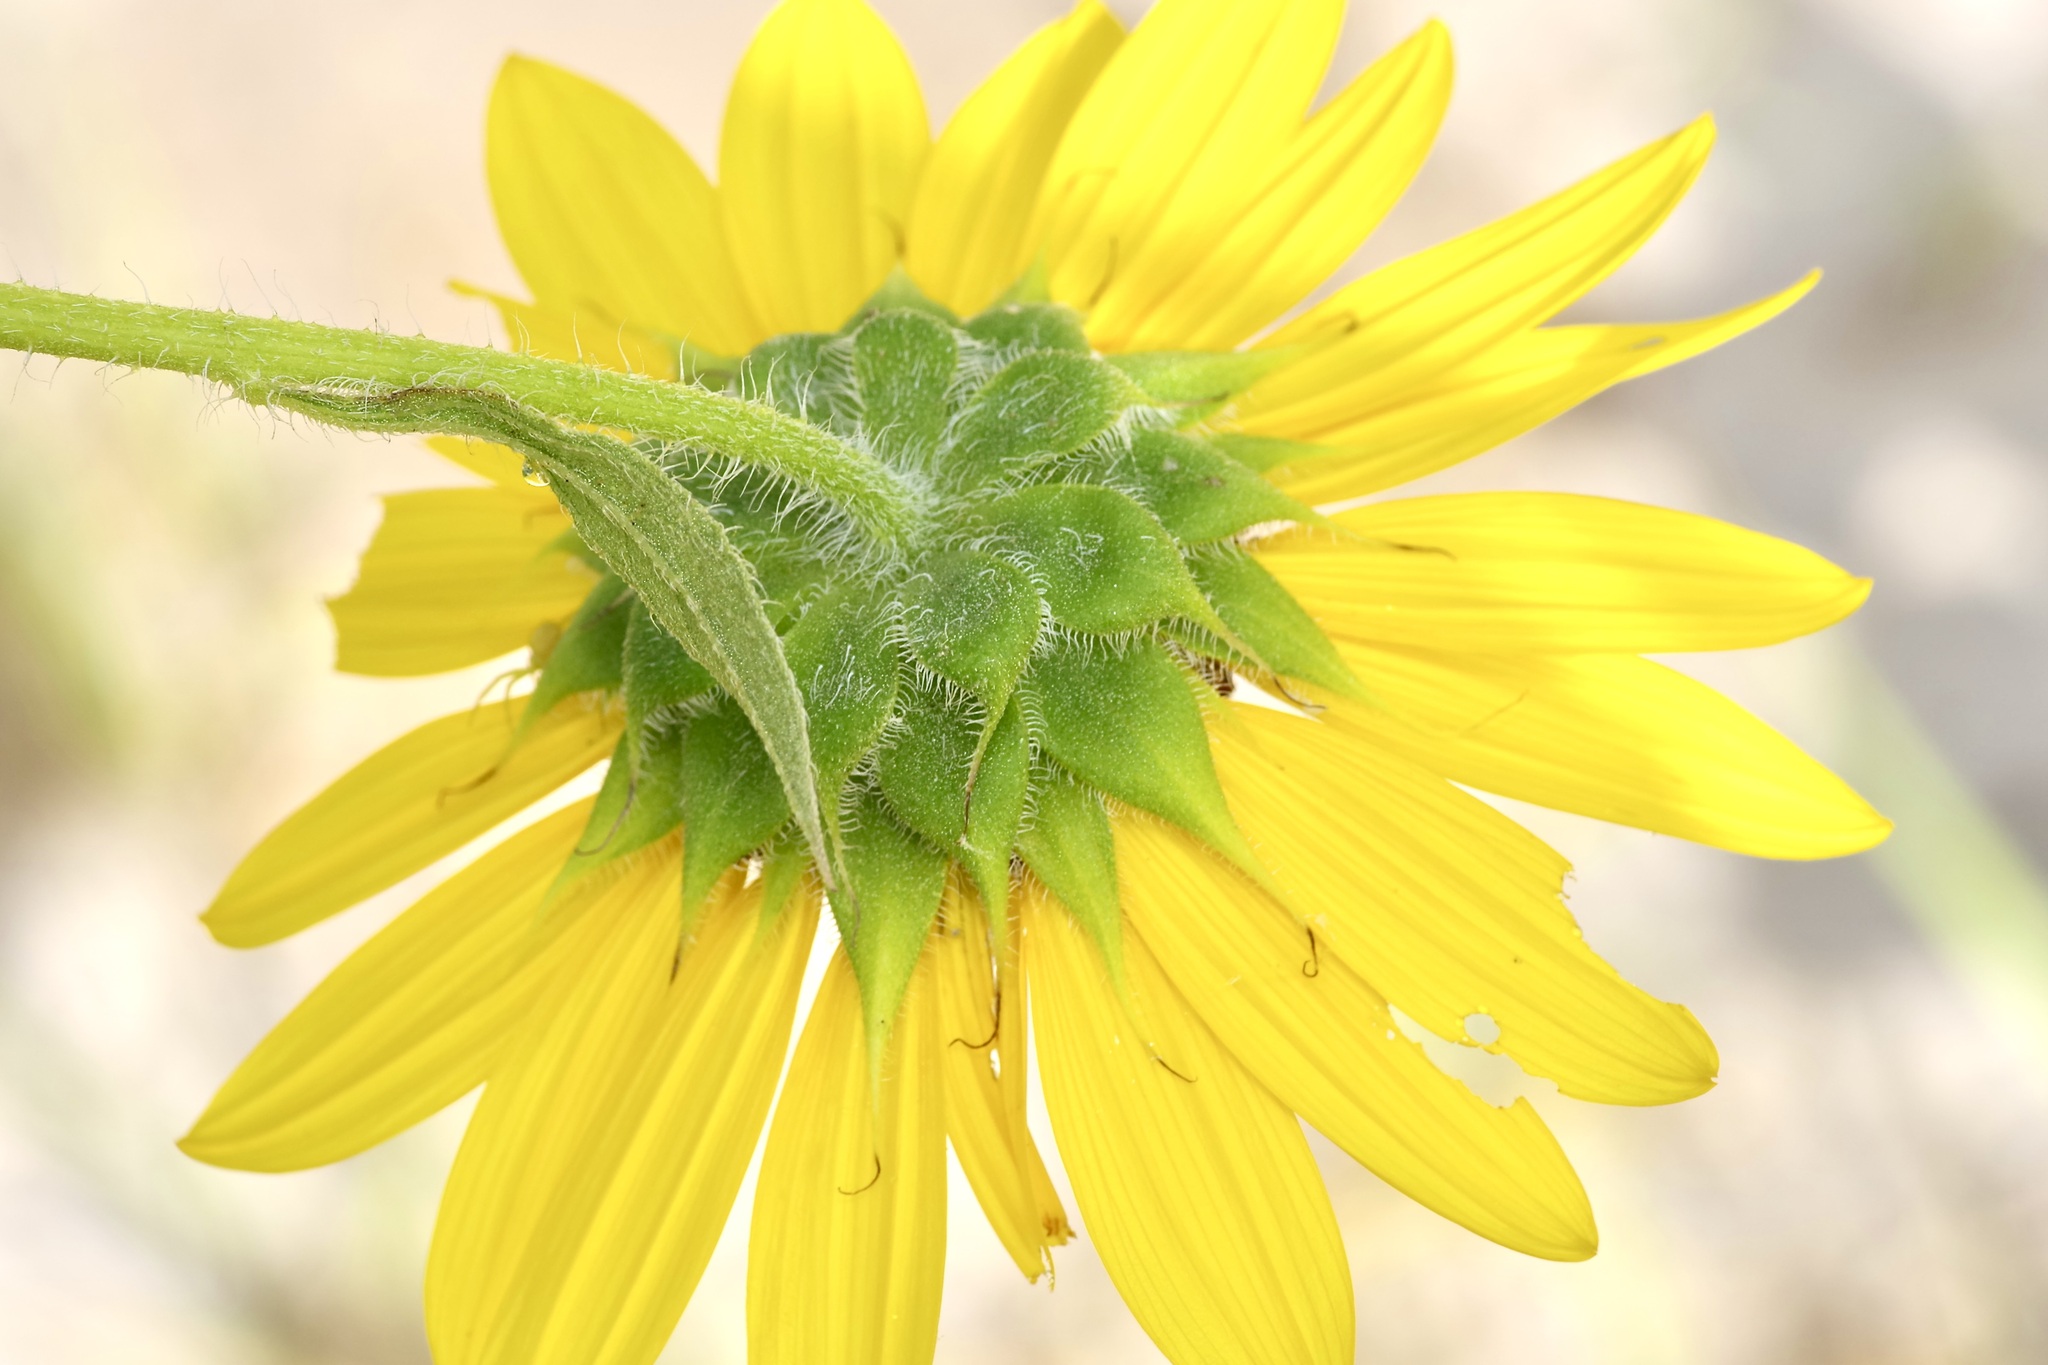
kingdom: Plantae
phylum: Tracheophyta
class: Magnoliopsida
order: Asterales
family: Asteraceae
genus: Helianthus
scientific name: Helianthus annuus
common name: Sunflower
